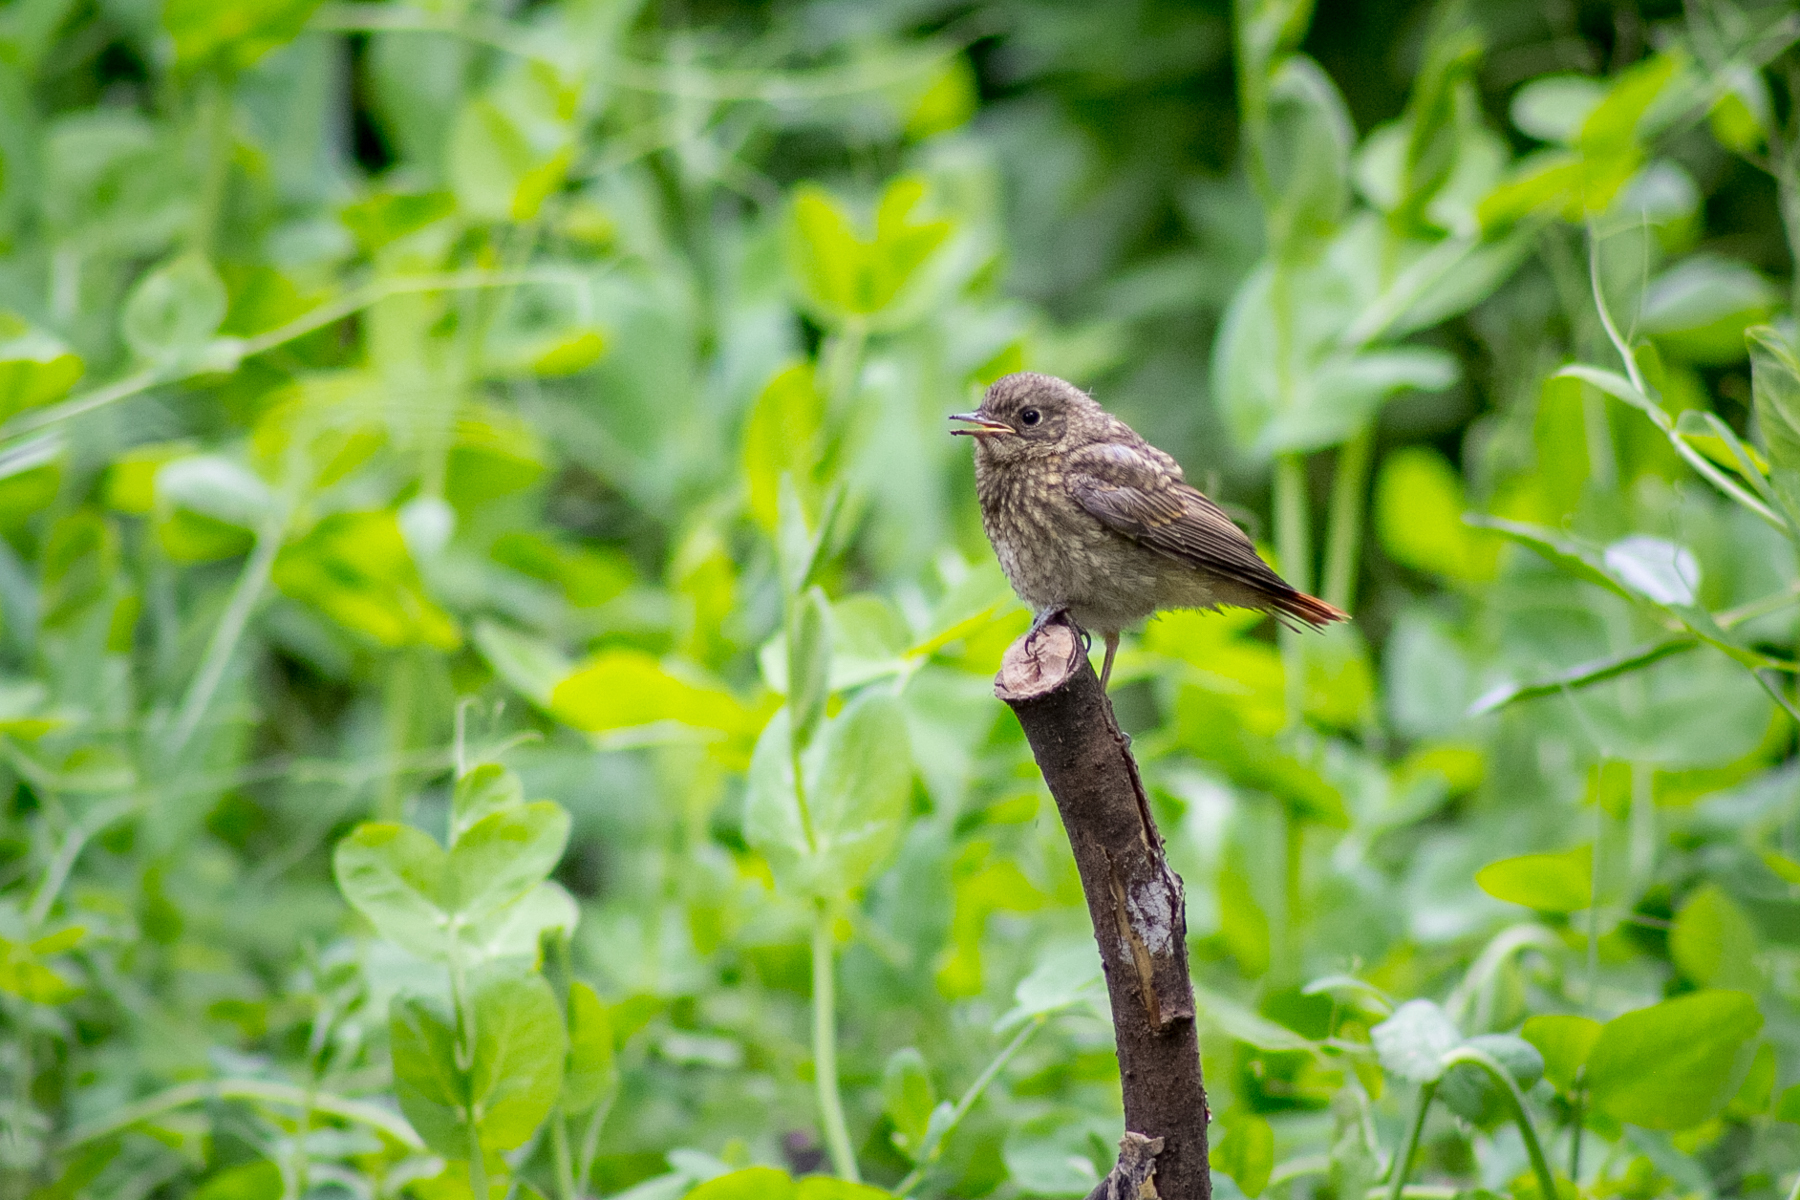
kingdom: Animalia
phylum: Chordata
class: Aves
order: Passeriformes
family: Muscicapidae
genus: Phoenicurus
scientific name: Phoenicurus phoenicurus
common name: Common redstart
